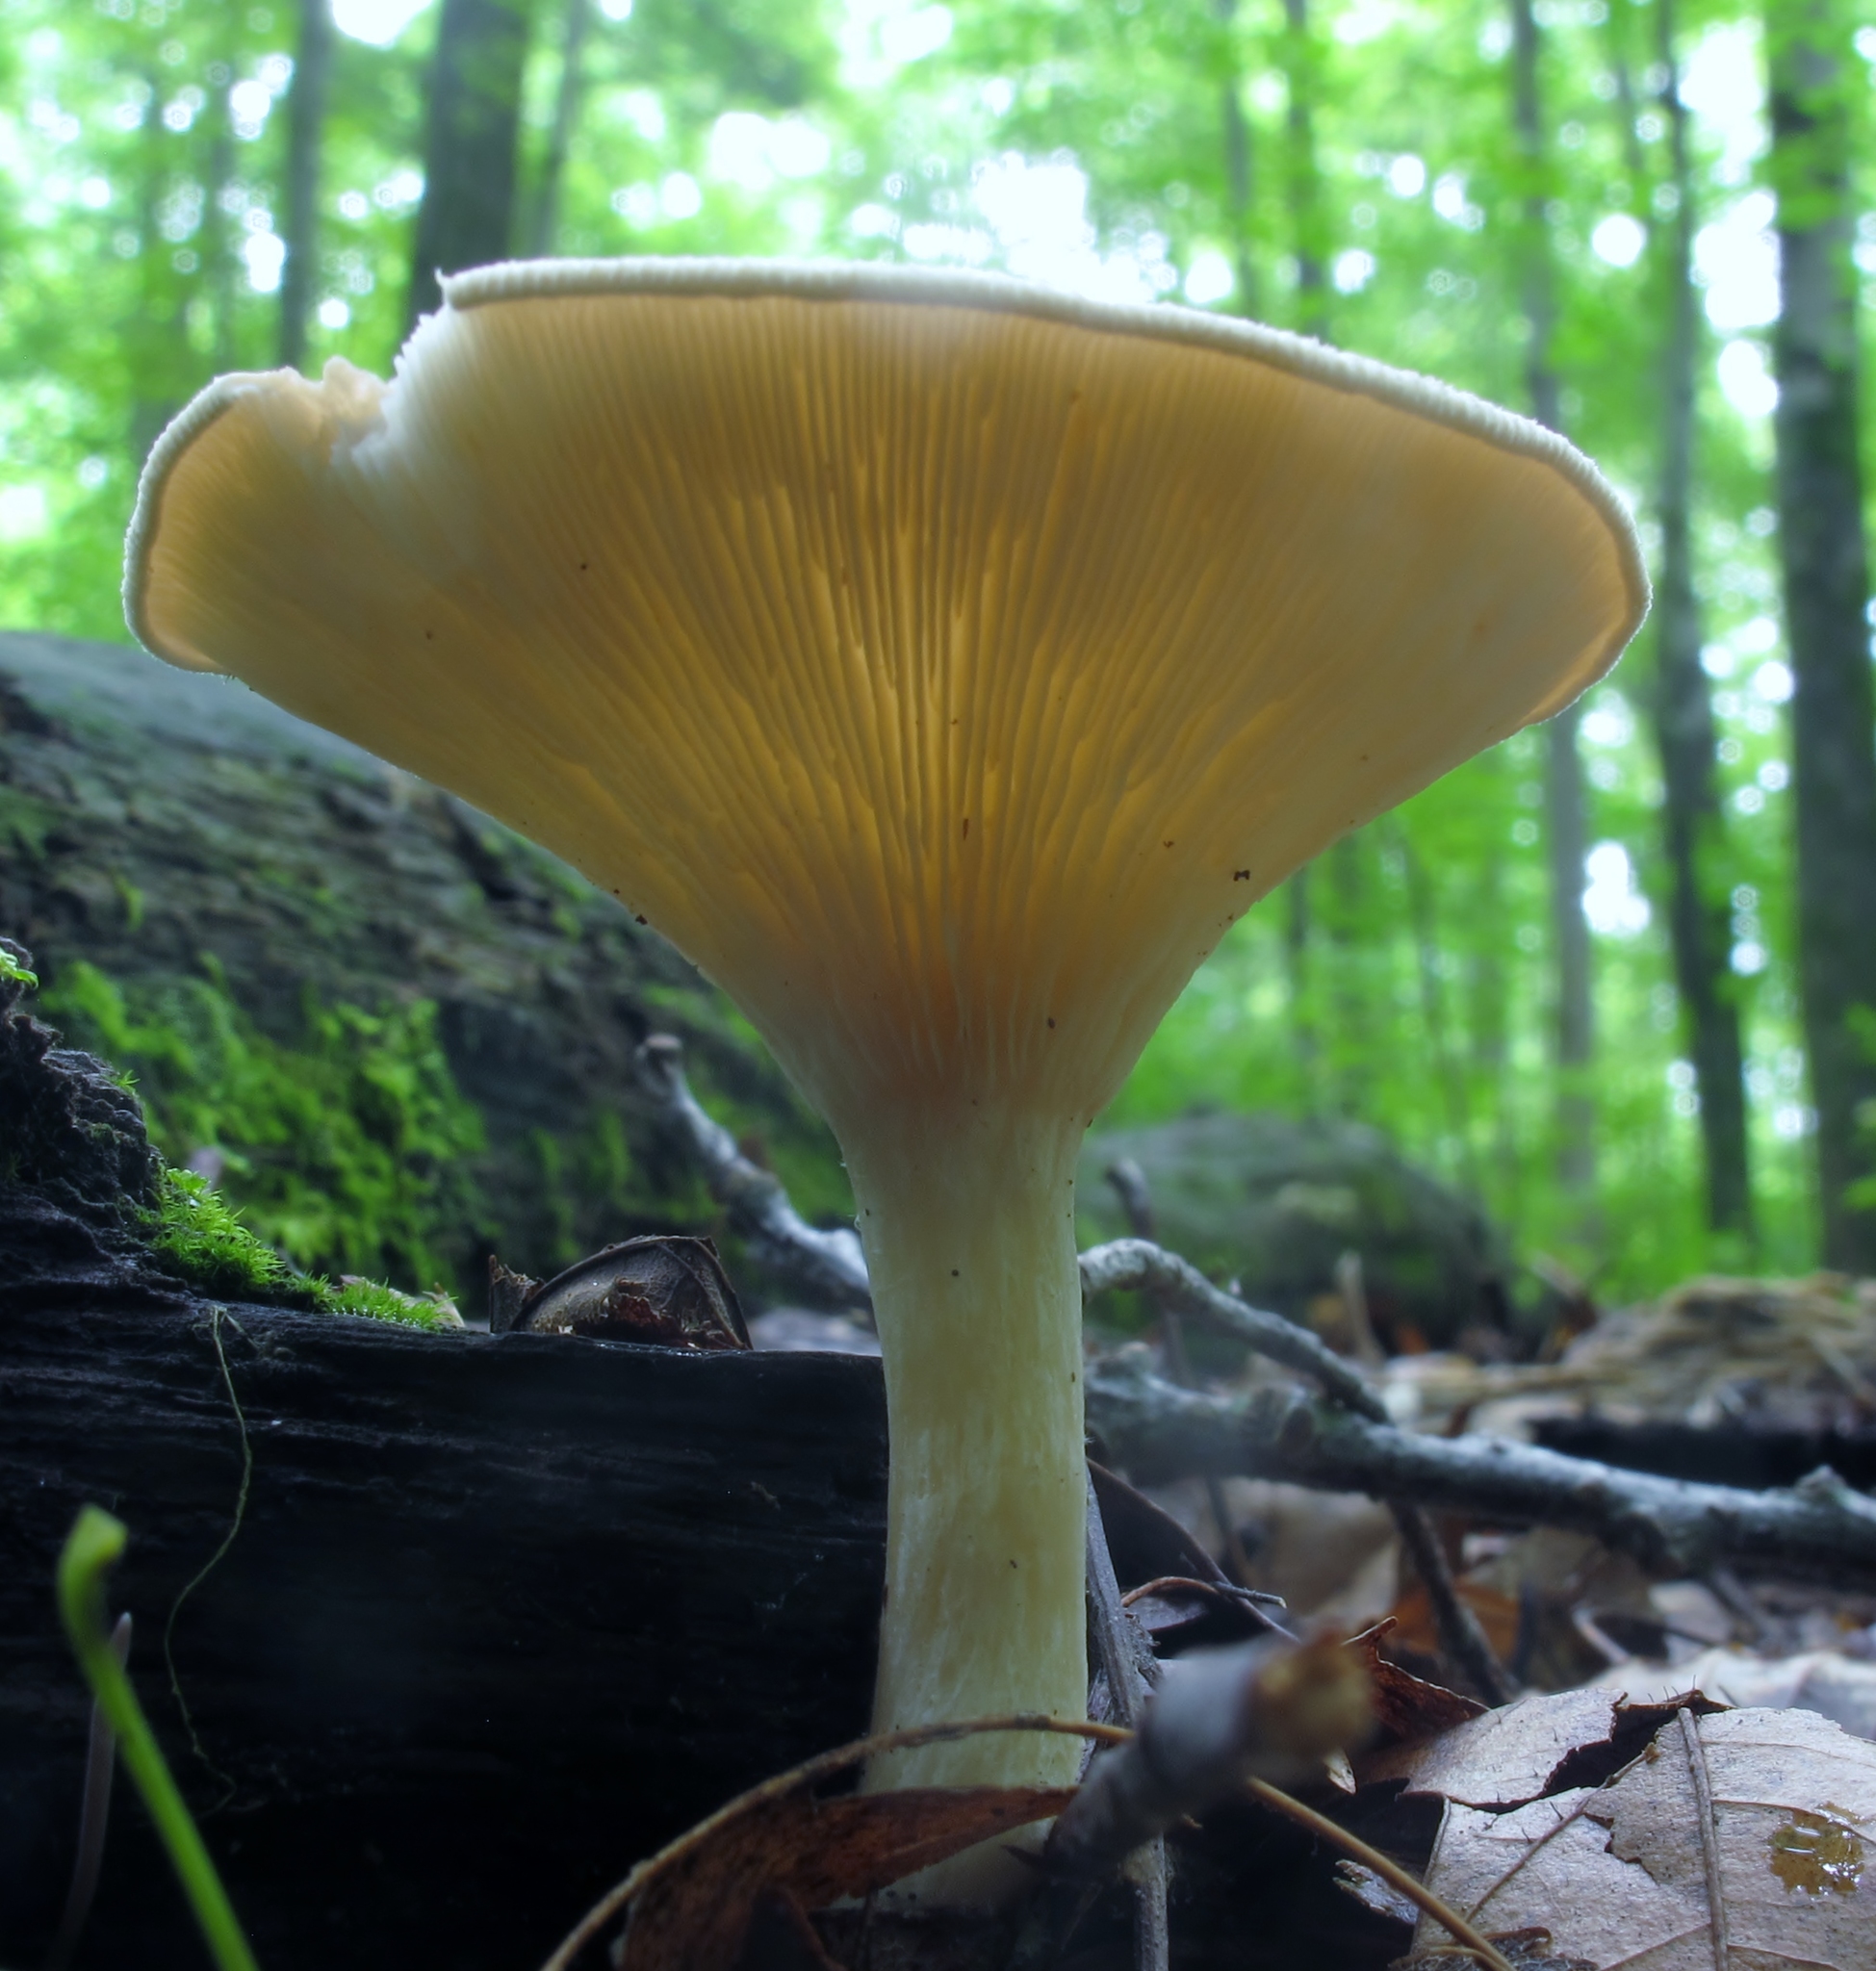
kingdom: Fungi
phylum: Basidiomycota
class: Agaricomycetes
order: Agaricales
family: Tricholomataceae
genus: Infundibulicybe
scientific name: Infundibulicybe gibba
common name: Common funnel
